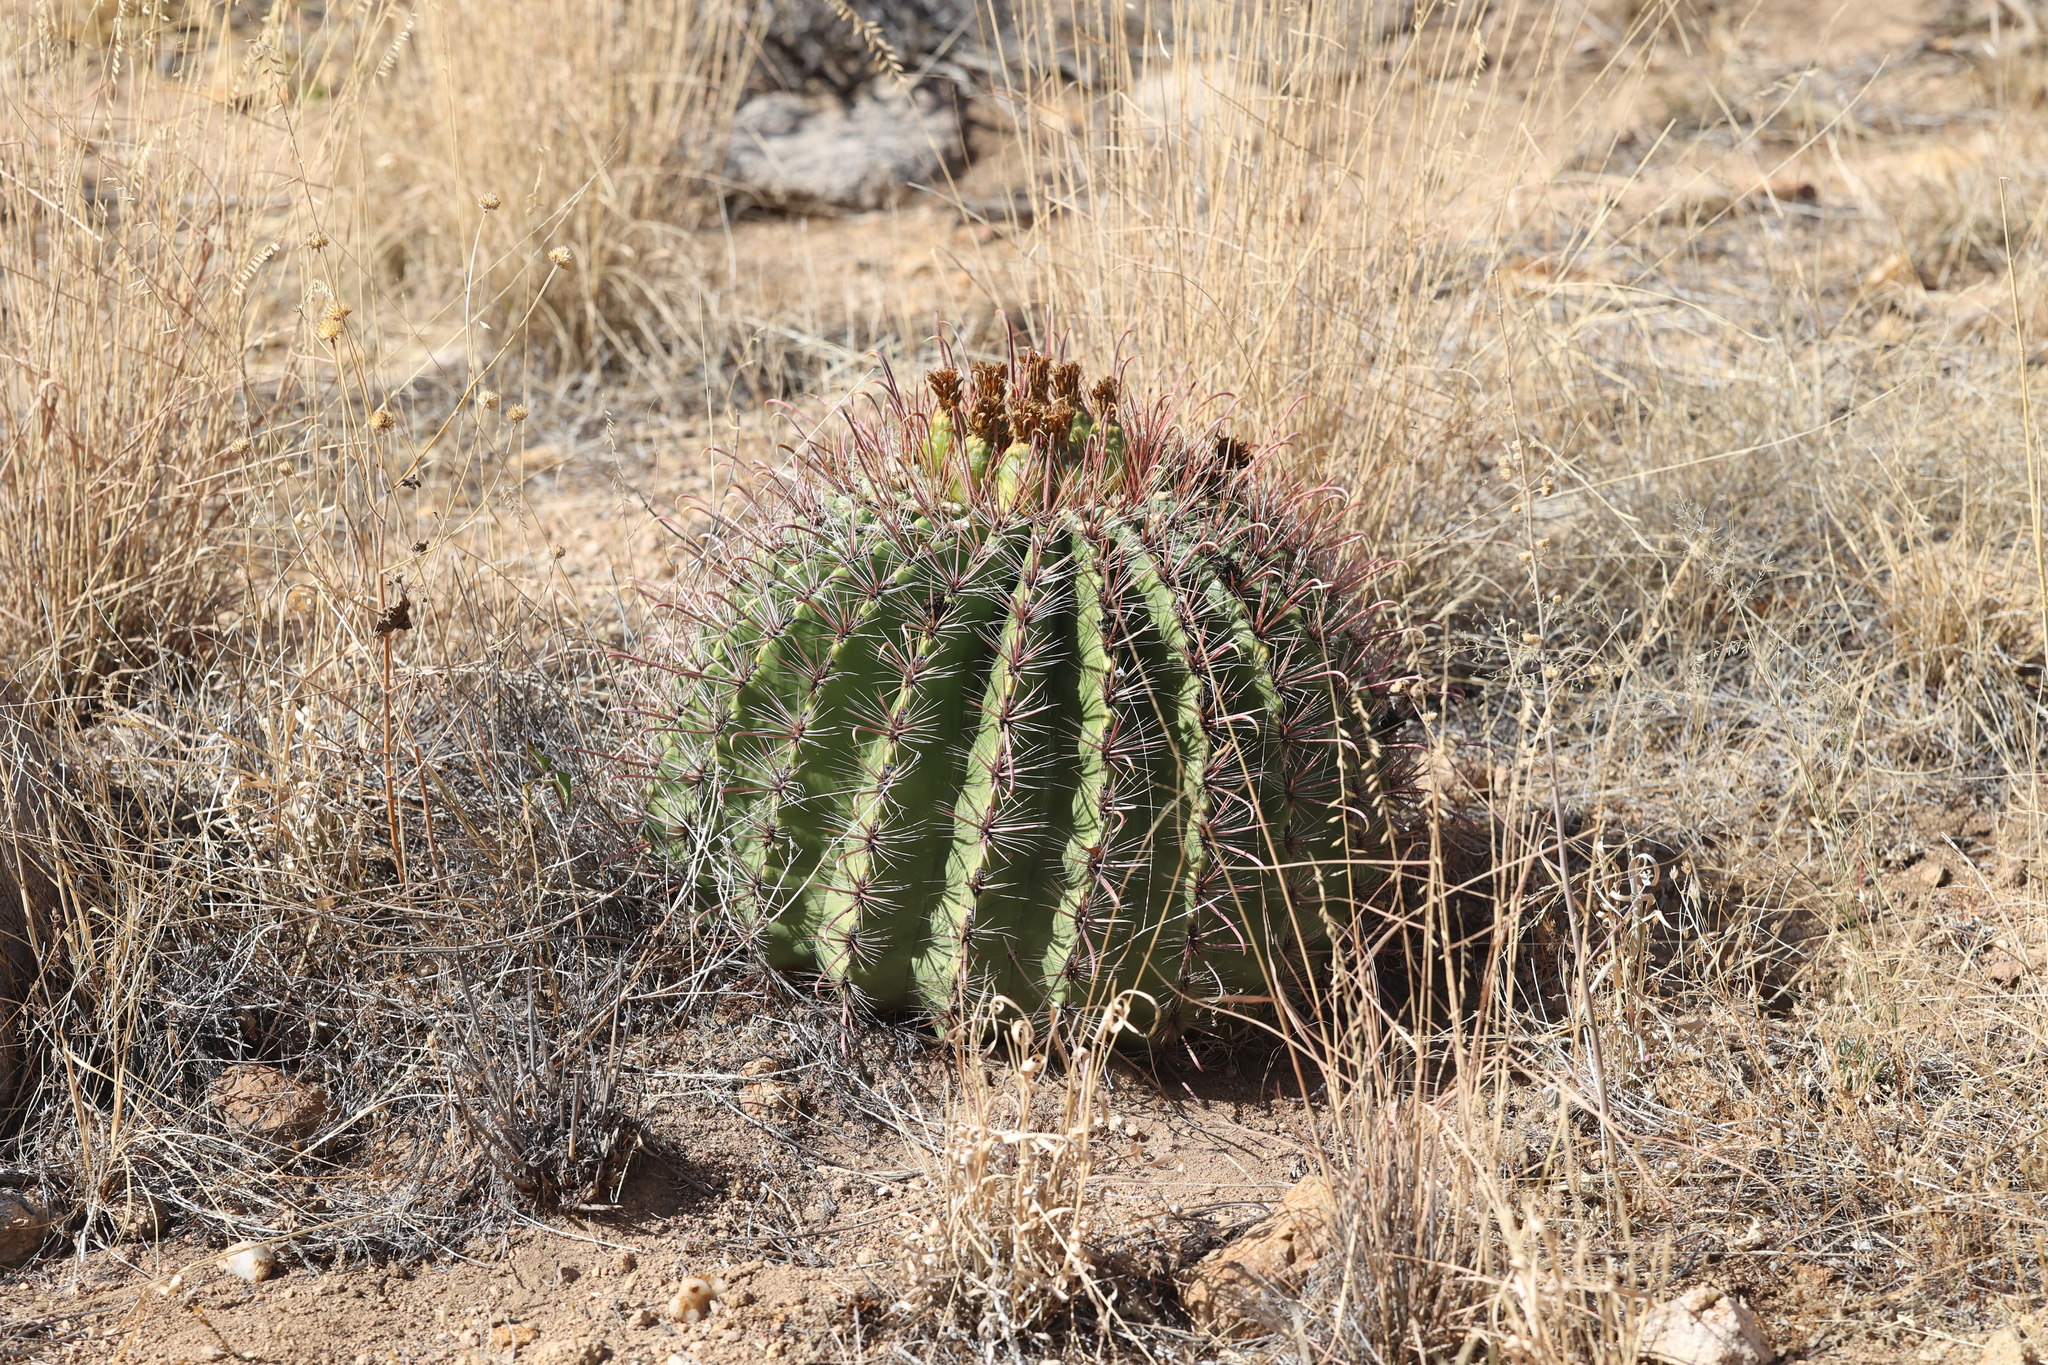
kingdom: Plantae
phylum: Tracheophyta
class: Magnoliopsida
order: Caryophyllales
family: Cactaceae
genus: Ferocactus
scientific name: Ferocactus wislizeni
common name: Candy barrel cactus
